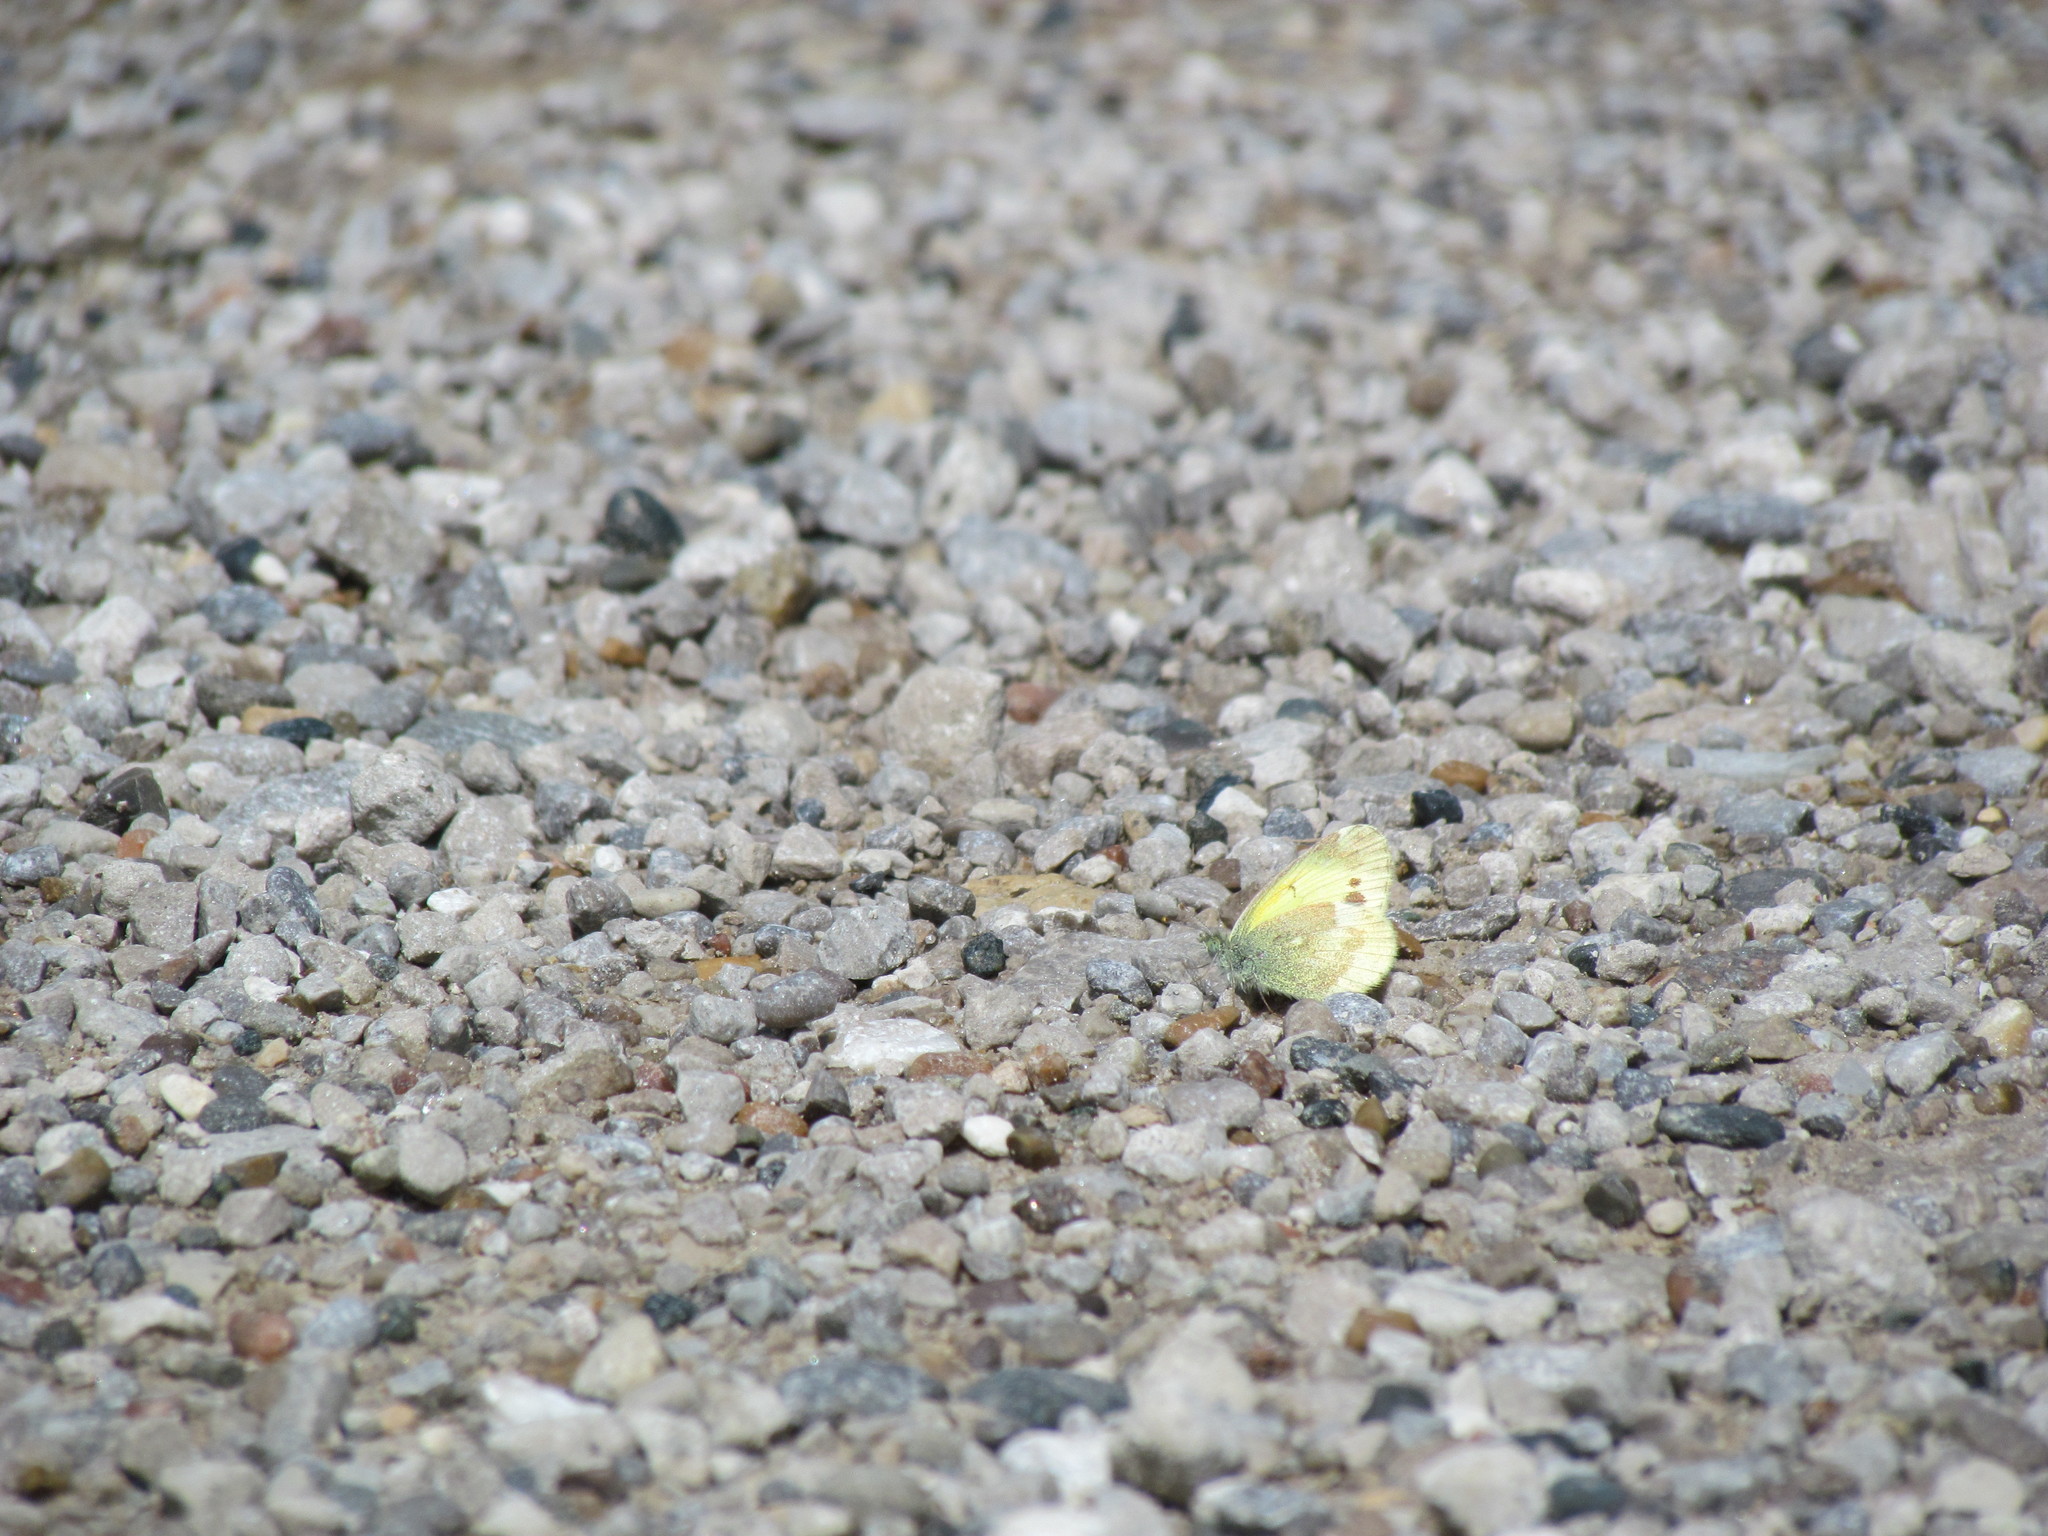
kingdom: Animalia
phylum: Arthropoda
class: Insecta
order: Lepidoptera
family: Pieridae
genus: Nathalis
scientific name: Nathalis iole
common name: Dainty sulphur
